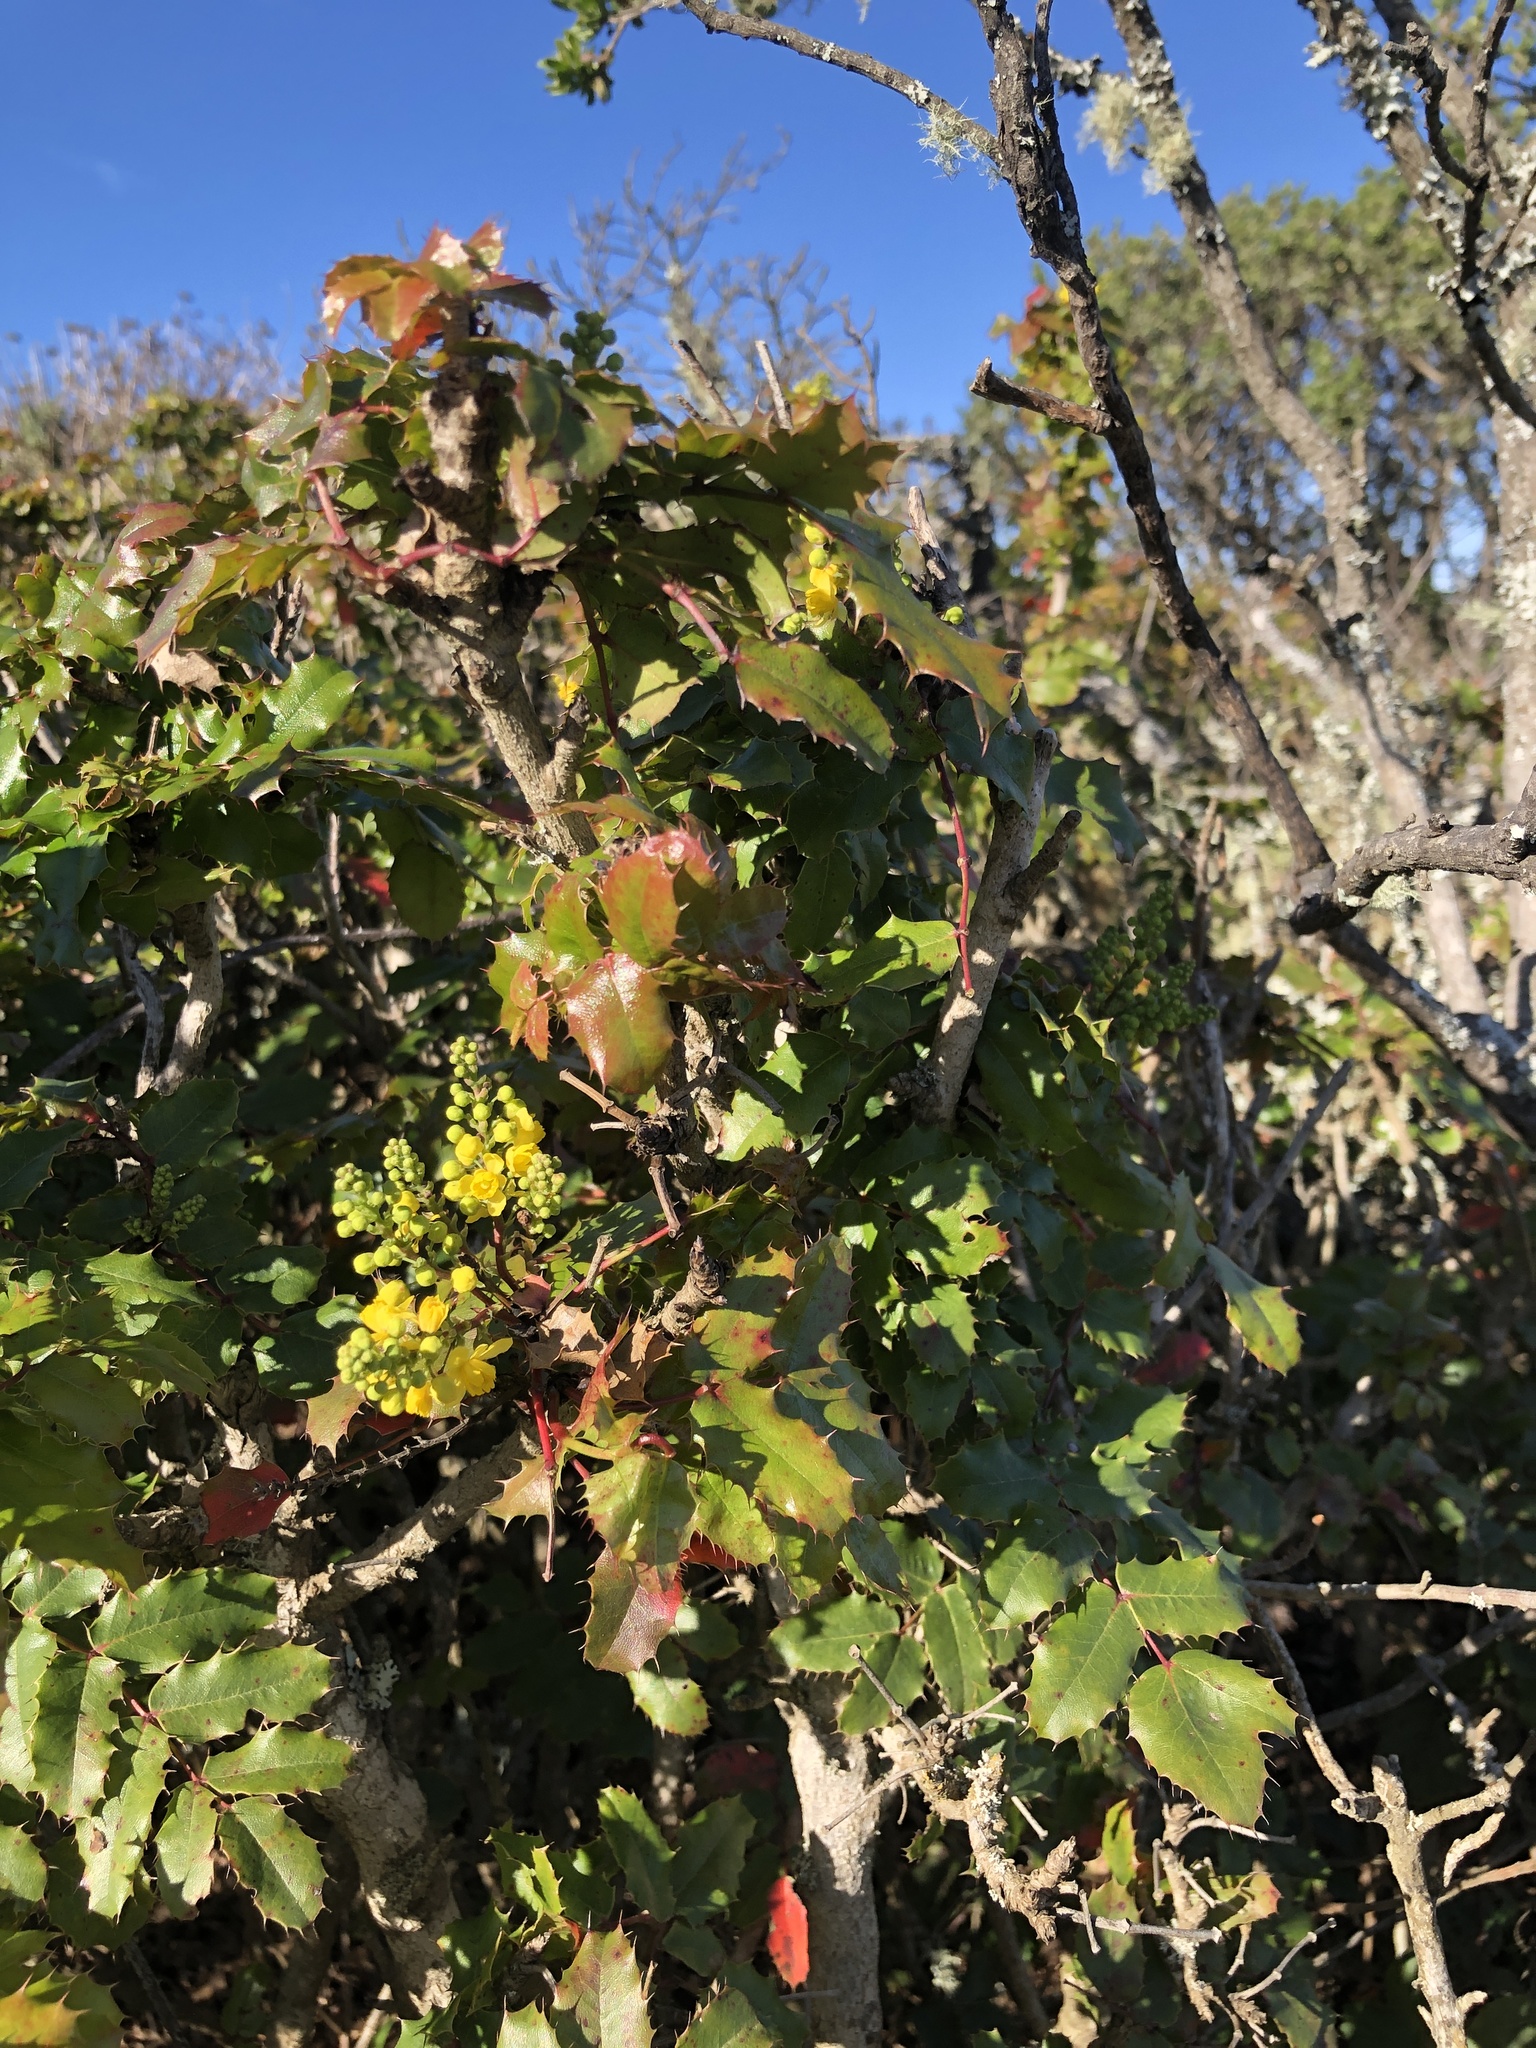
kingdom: Plantae
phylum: Tracheophyta
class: Magnoliopsida
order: Ranunculales
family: Berberidaceae
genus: Mahonia
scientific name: Mahonia
